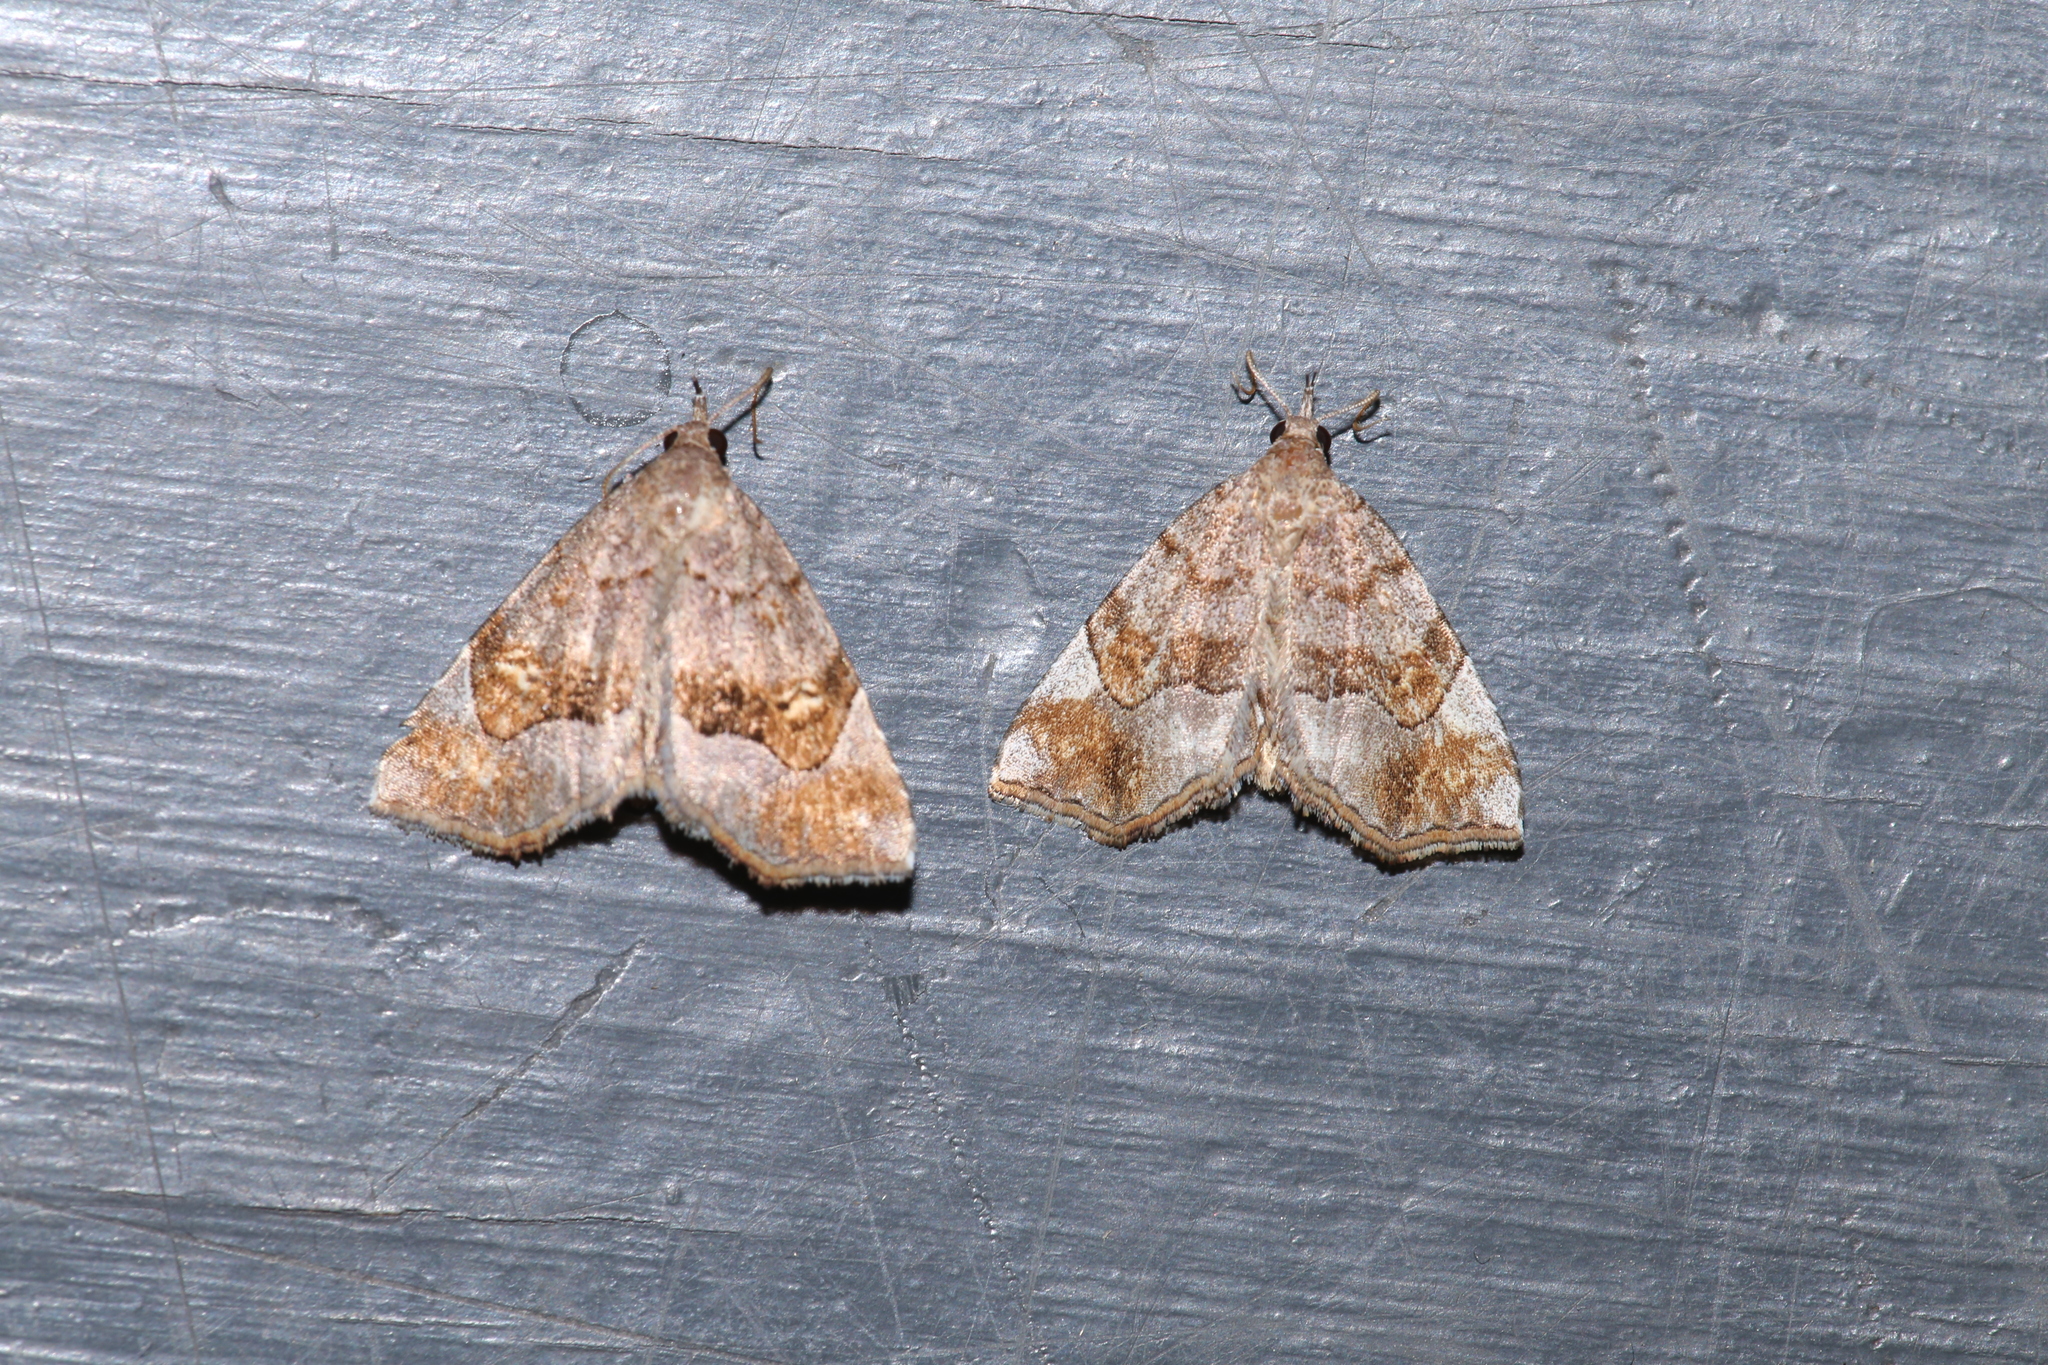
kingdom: Animalia
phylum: Arthropoda
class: Insecta
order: Lepidoptera
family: Erebidae
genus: Pangrapta
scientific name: Pangrapta decoralis
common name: Decorated owlet
